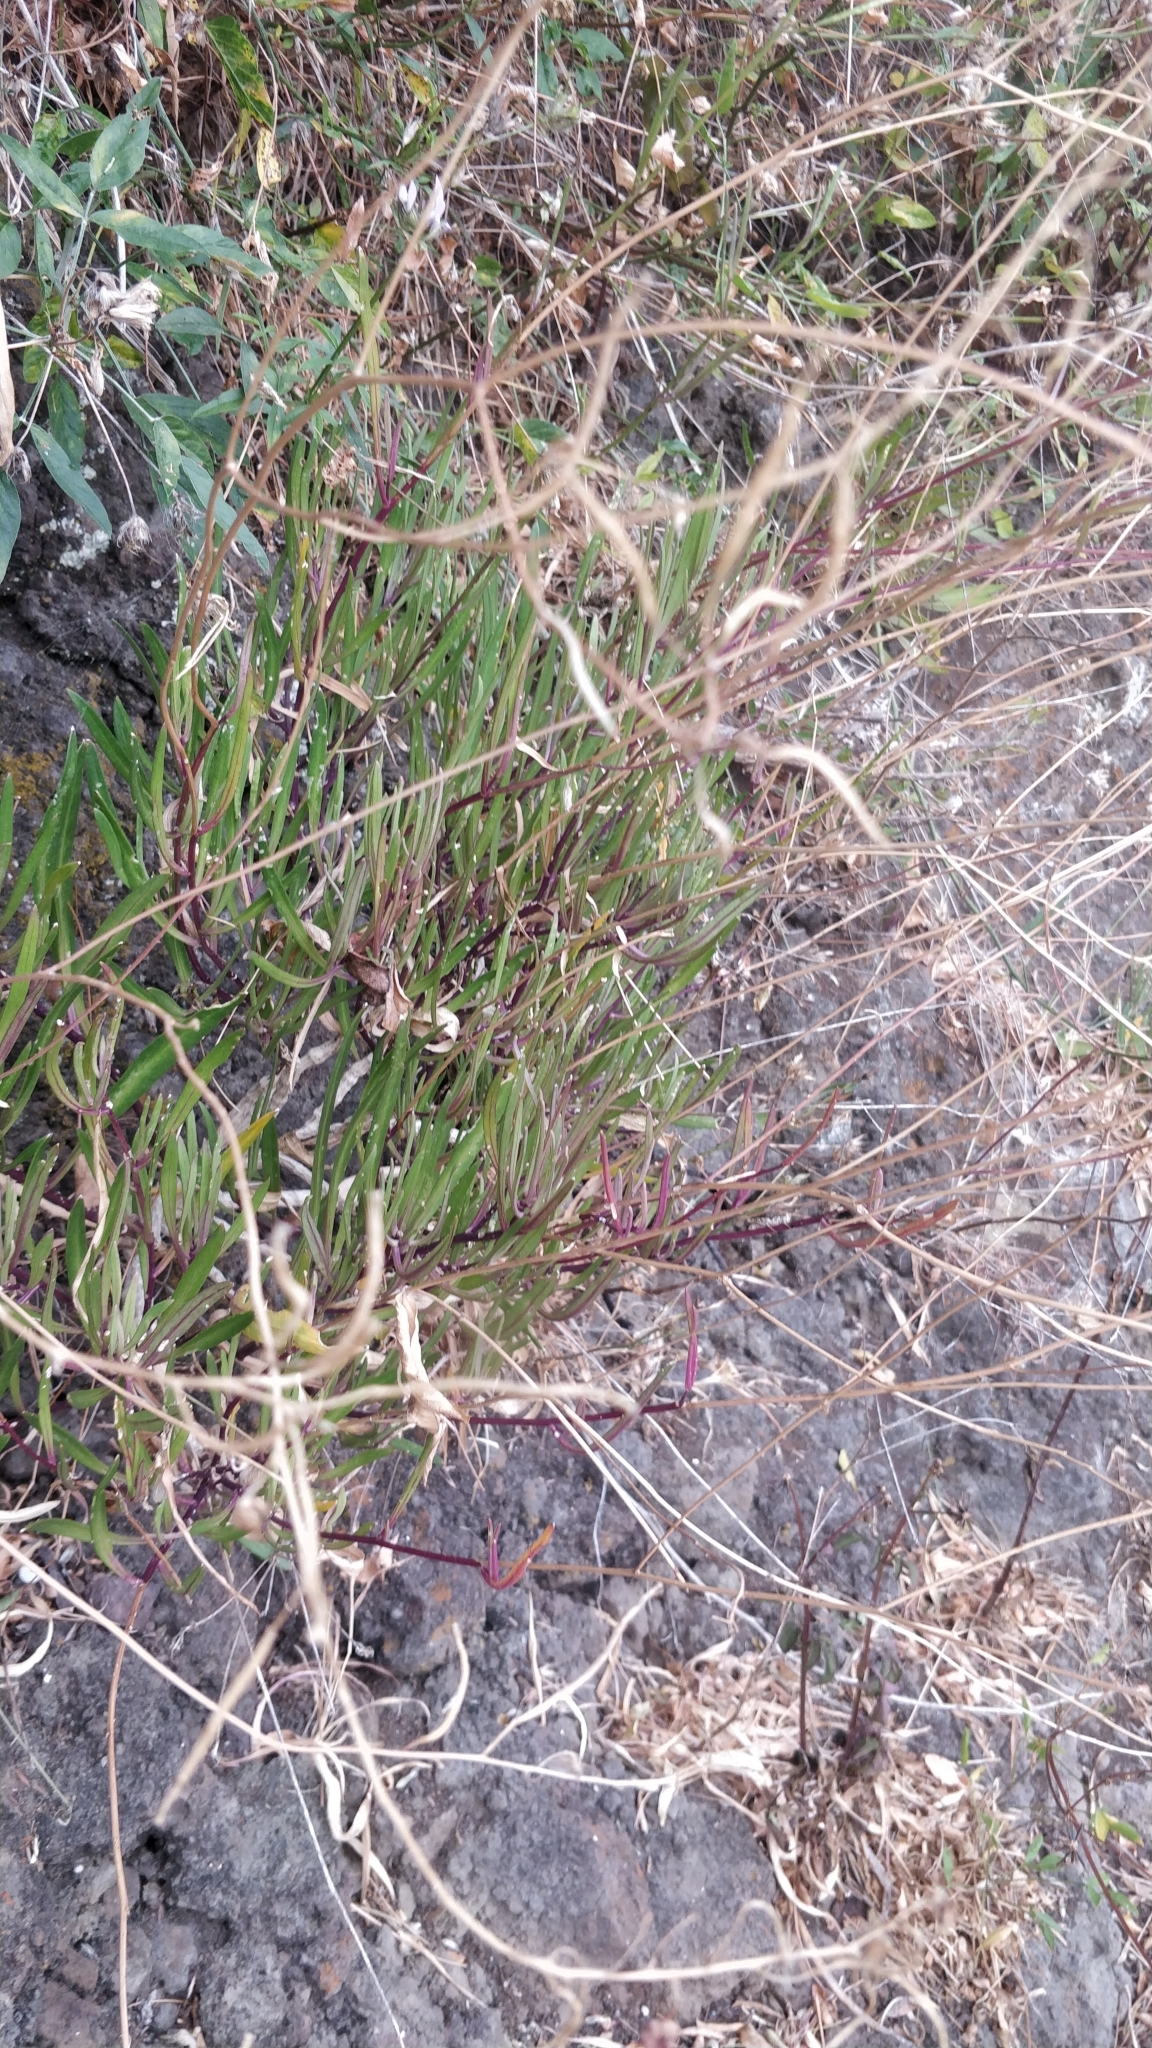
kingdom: Plantae
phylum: Tracheophyta
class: Magnoliopsida
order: Brassicales
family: Brassicaceae
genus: Sinapidendron
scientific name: Sinapidendron angustifolium
